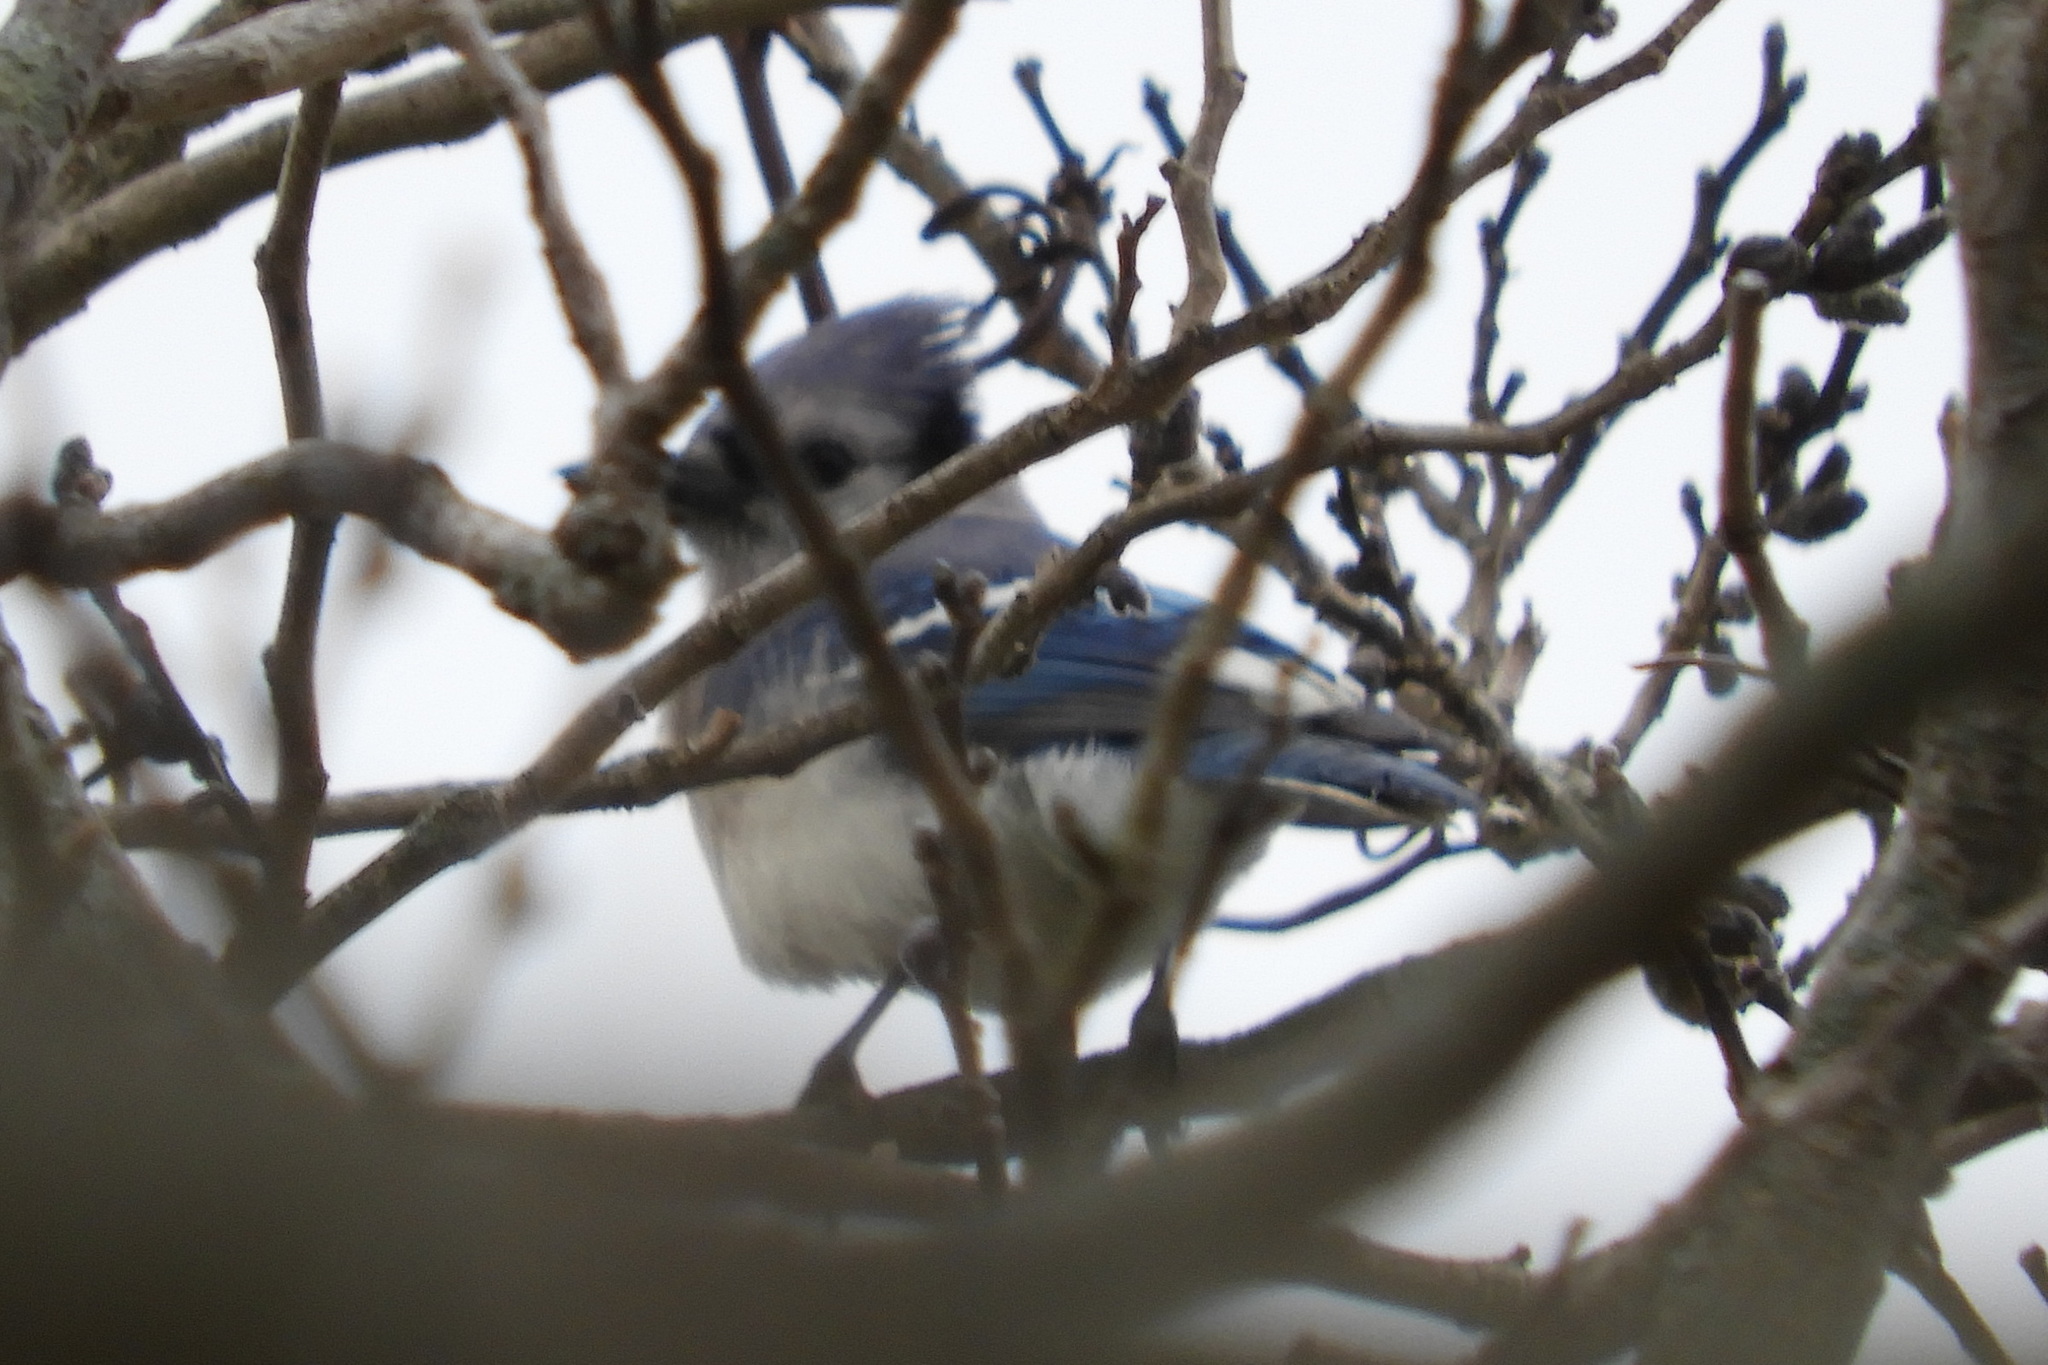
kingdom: Animalia
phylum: Chordata
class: Aves
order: Passeriformes
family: Corvidae
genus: Cyanocitta
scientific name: Cyanocitta cristata
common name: Blue jay
